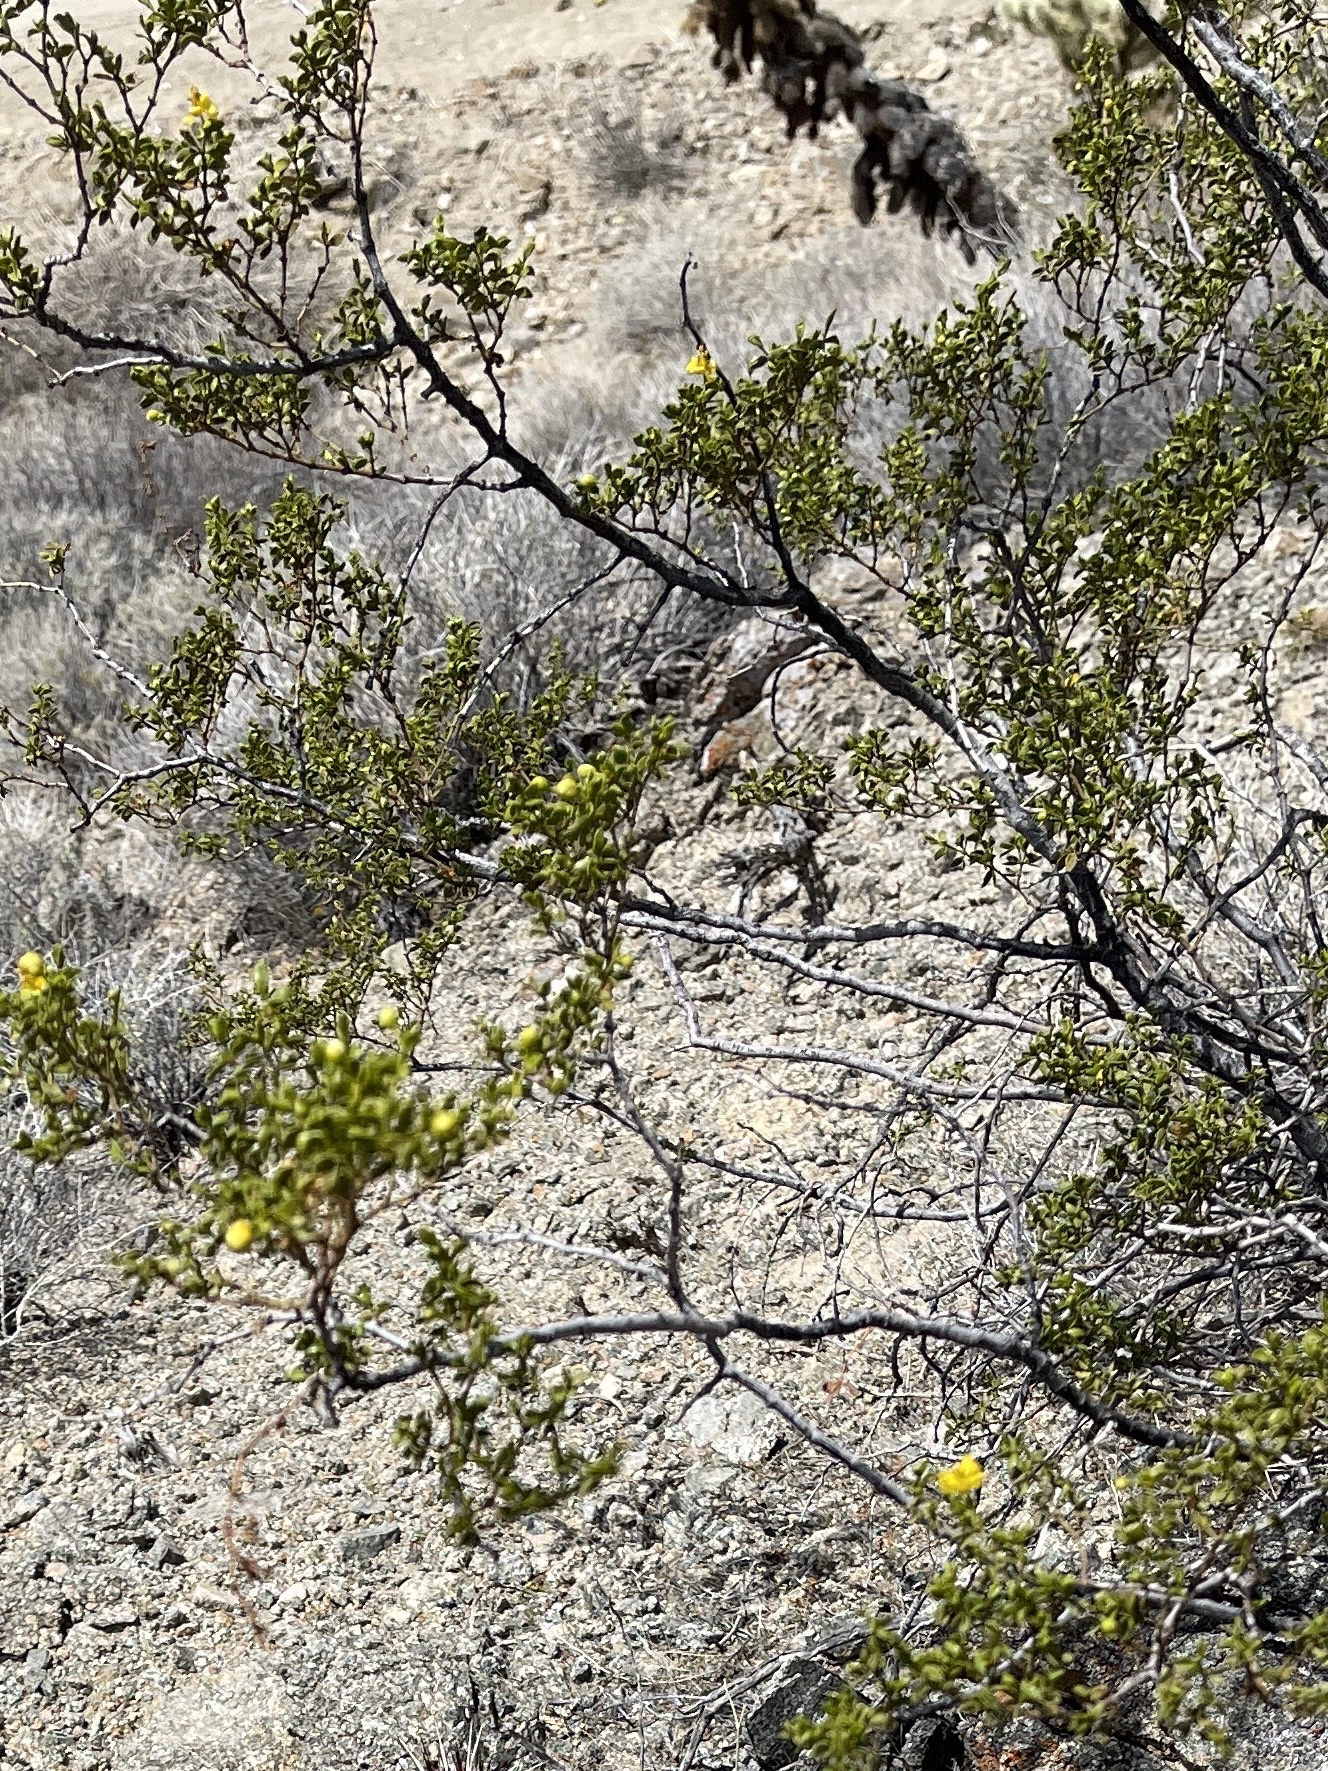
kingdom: Plantae
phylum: Tracheophyta
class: Magnoliopsida
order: Zygophyllales
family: Zygophyllaceae
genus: Larrea
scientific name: Larrea tridentata
